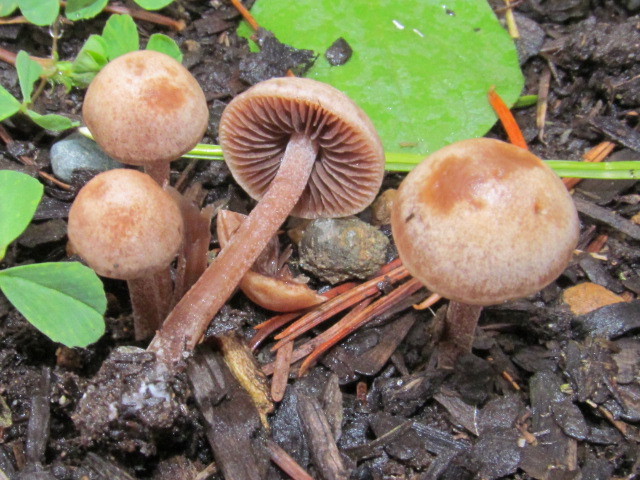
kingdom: Fungi
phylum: Basidiomycota
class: Agaricomycetes
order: Agaricales
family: Bolbitiaceae
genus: Panaeolus
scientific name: Panaeolus cinctulus
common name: Banded mottlegill
